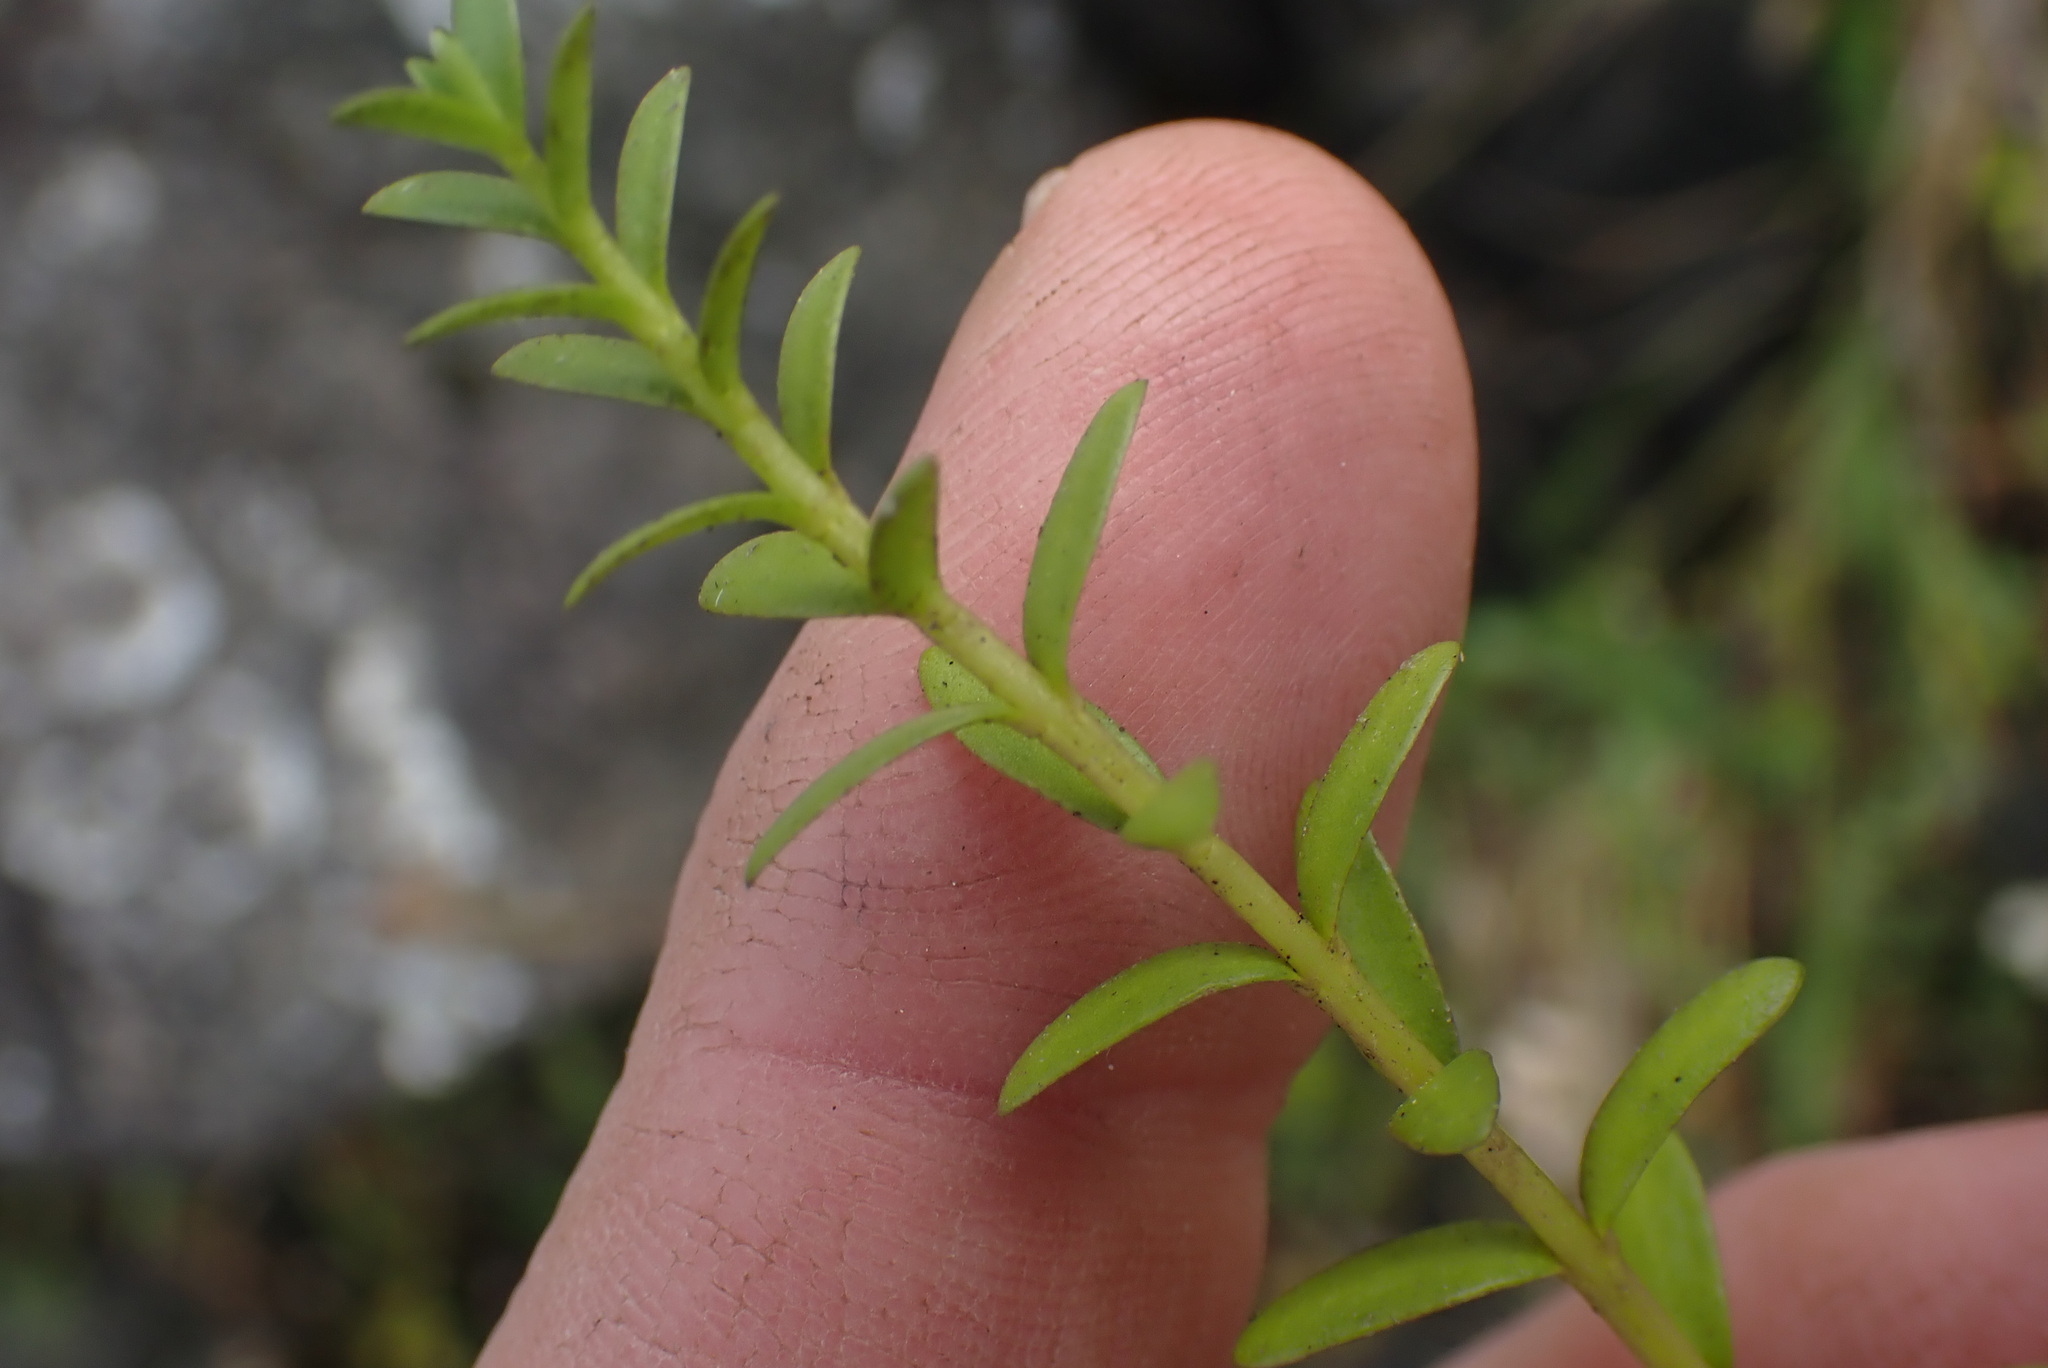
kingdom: Plantae
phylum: Tracheophyta
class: Magnoliopsida
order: Ericales
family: Primulaceae
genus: Lysimachia
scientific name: Lysimachia maritima
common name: Sea milkwort
